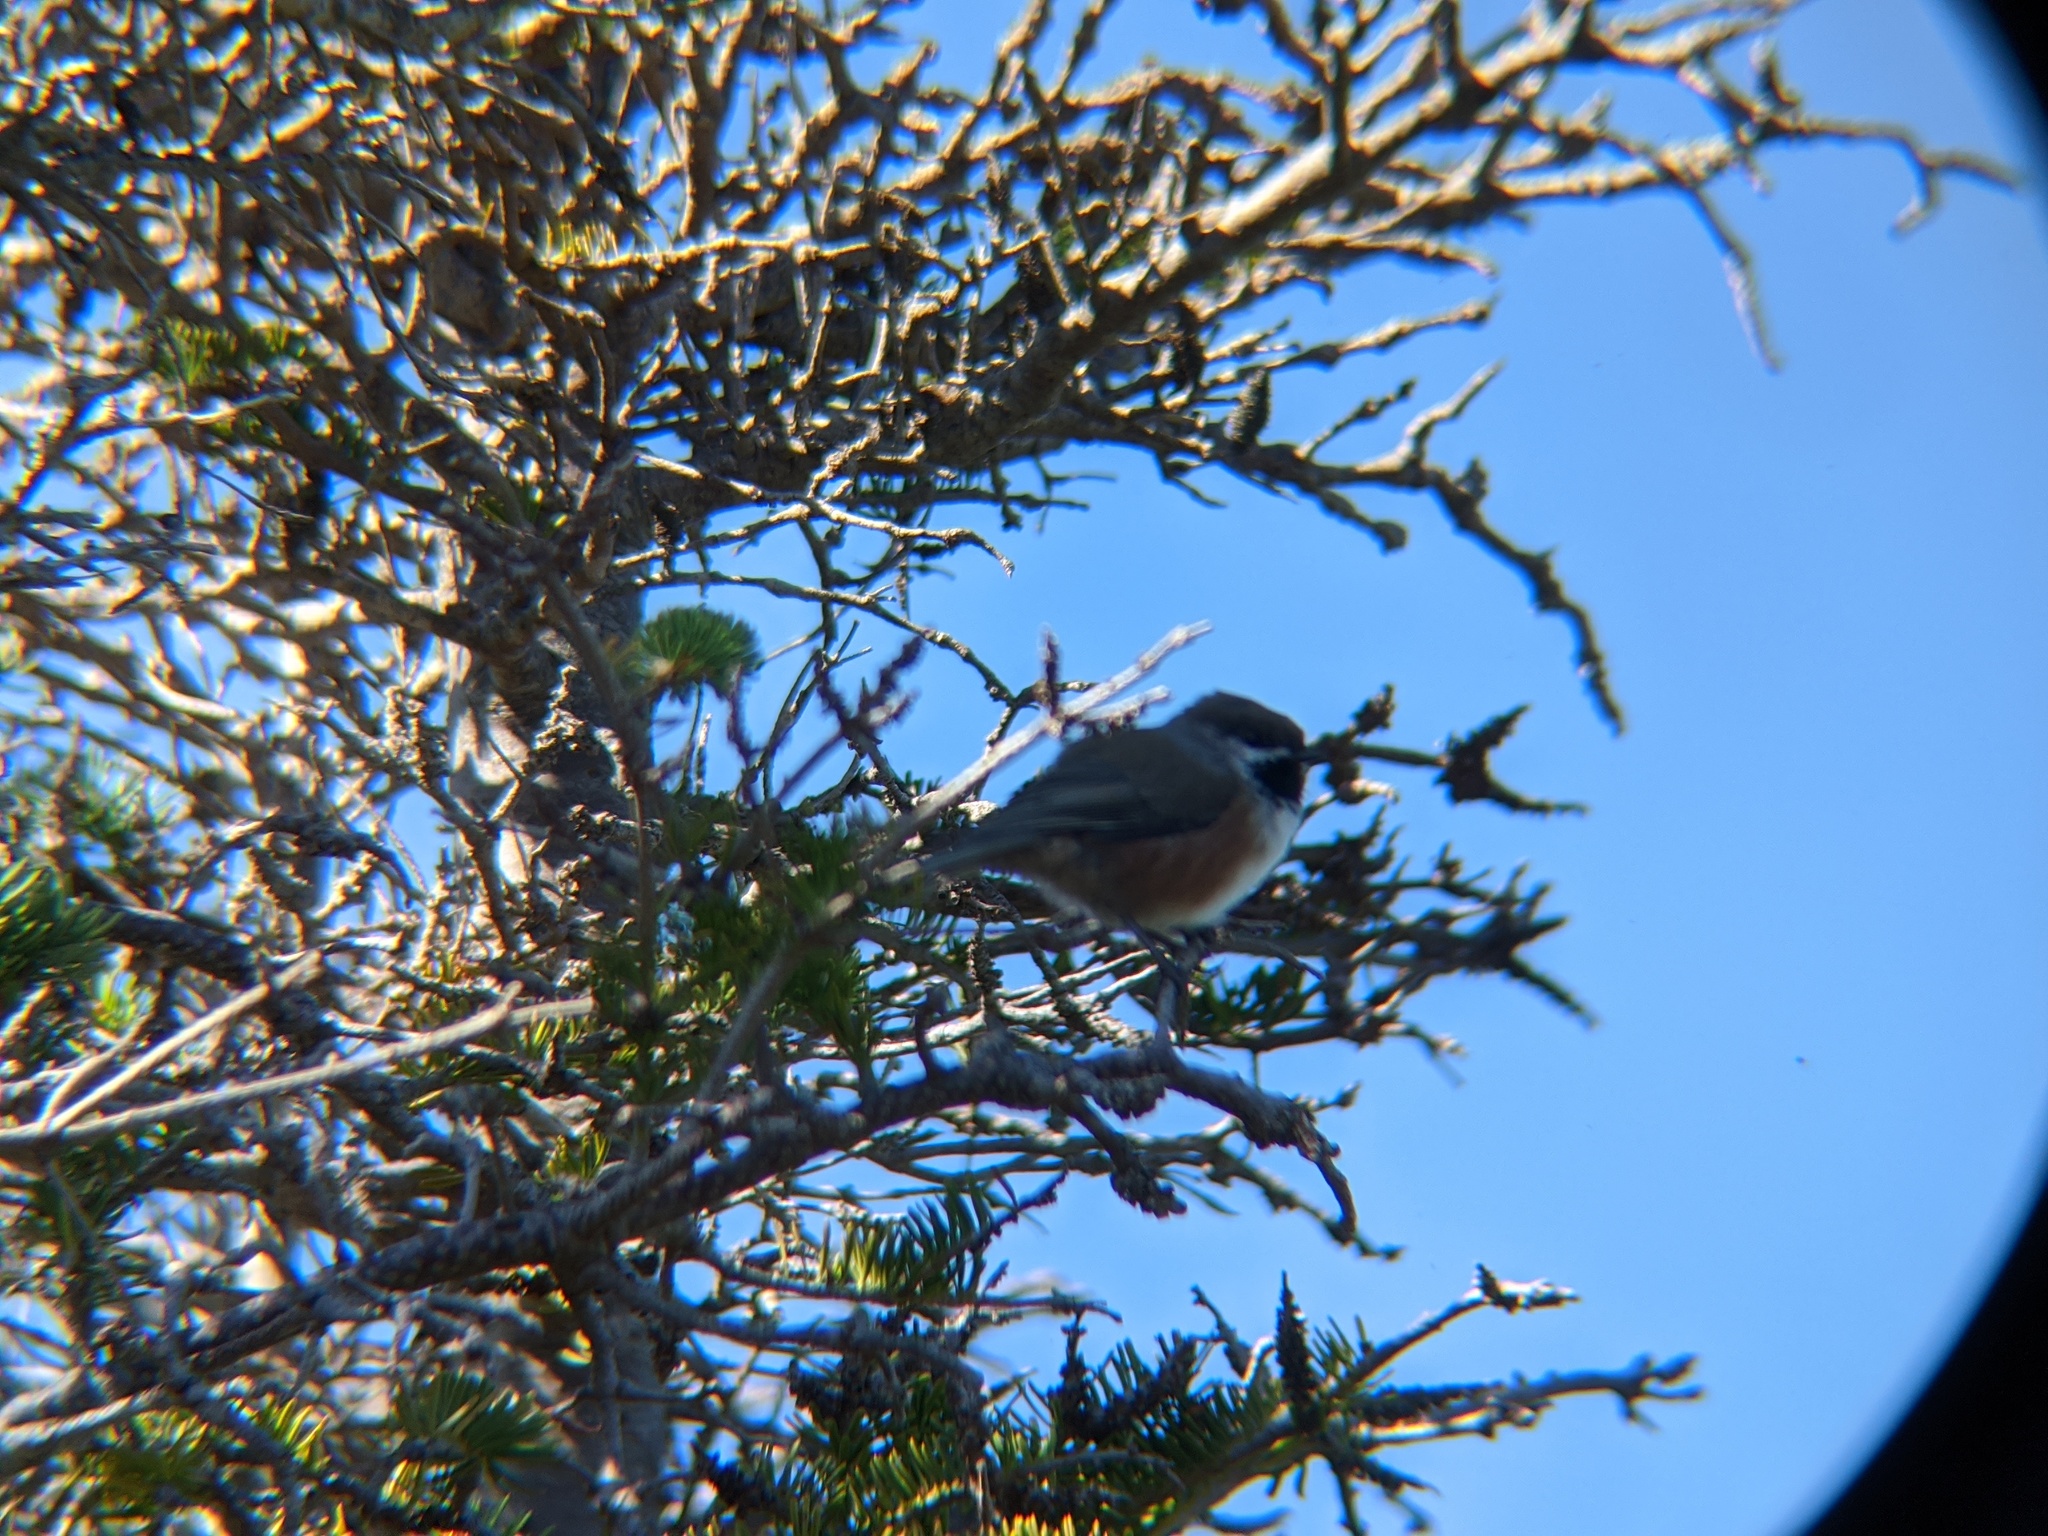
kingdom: Animalia
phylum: Chordata
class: Aves
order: Passeriformes
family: Paridae
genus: Poecile
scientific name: Poecile hudsonicus
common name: Boreal chickadee
